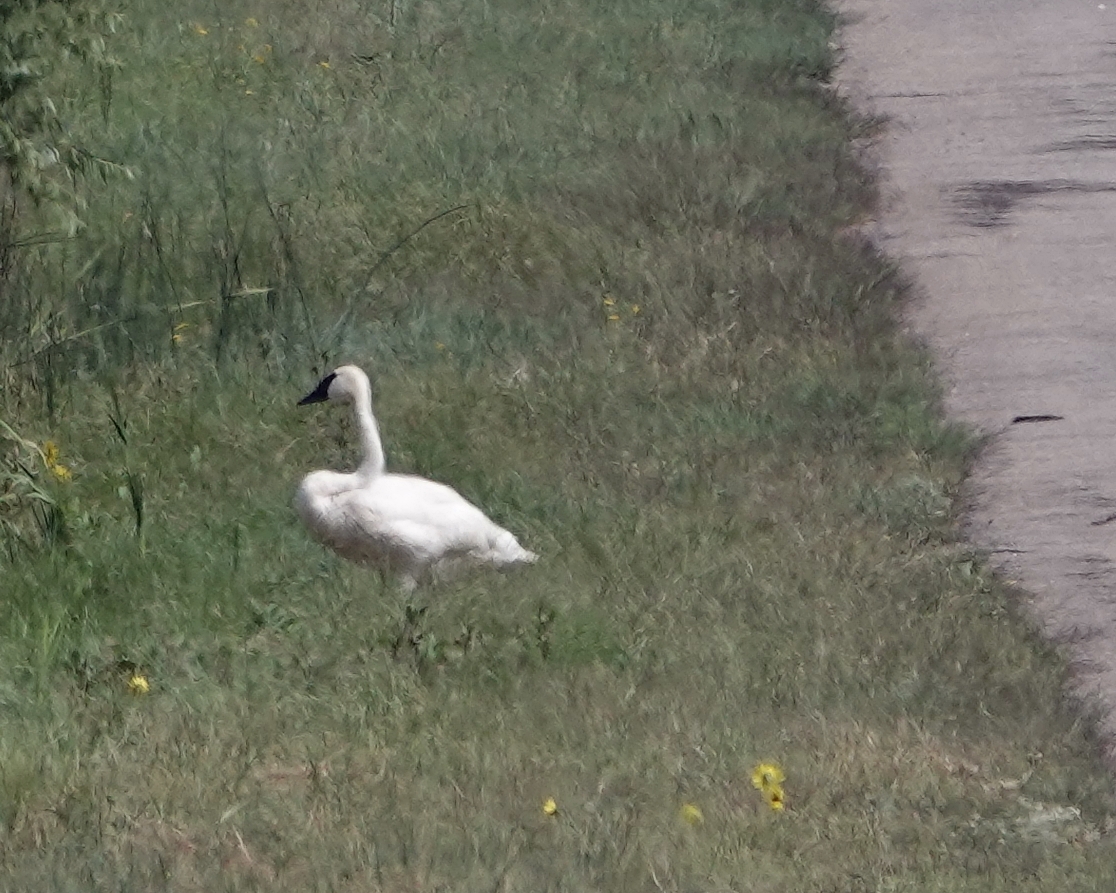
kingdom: Animalia
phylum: Chordata
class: Aves
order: Anseriformes
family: Anatidae
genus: Cygnus
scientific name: Cygnus buccinator
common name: Trumpeter swan
